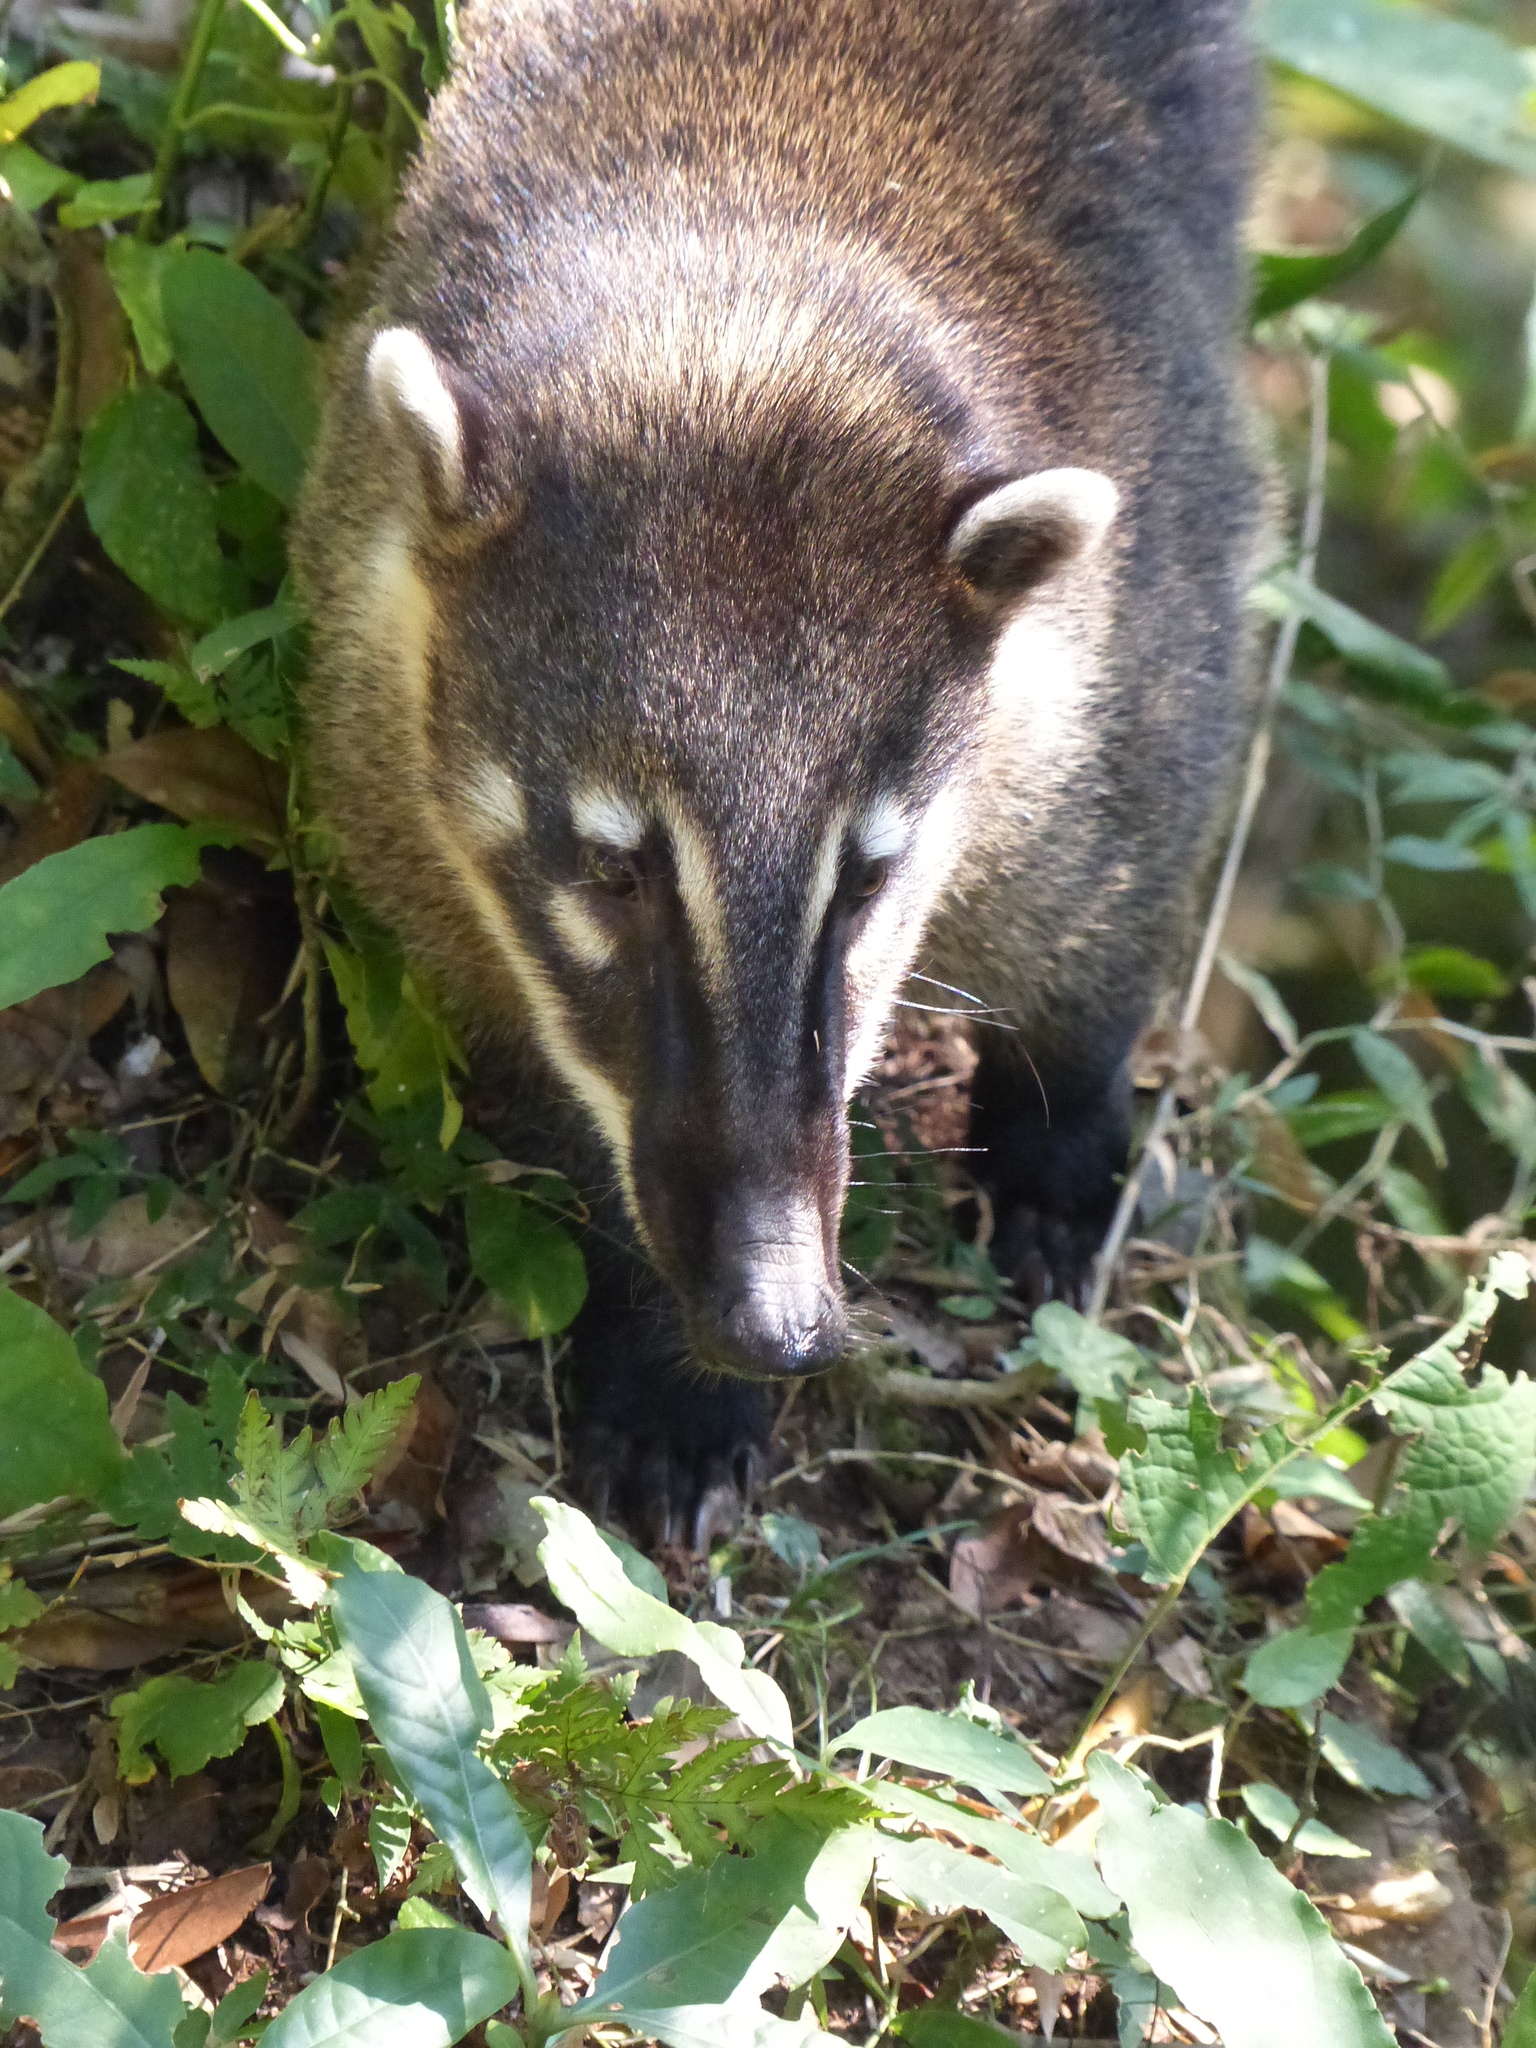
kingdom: Animalia
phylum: Chordata
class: Mammalia
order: Carnivora
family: Procyonidae
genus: Nasua
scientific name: Nasua nasua
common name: South american coati
